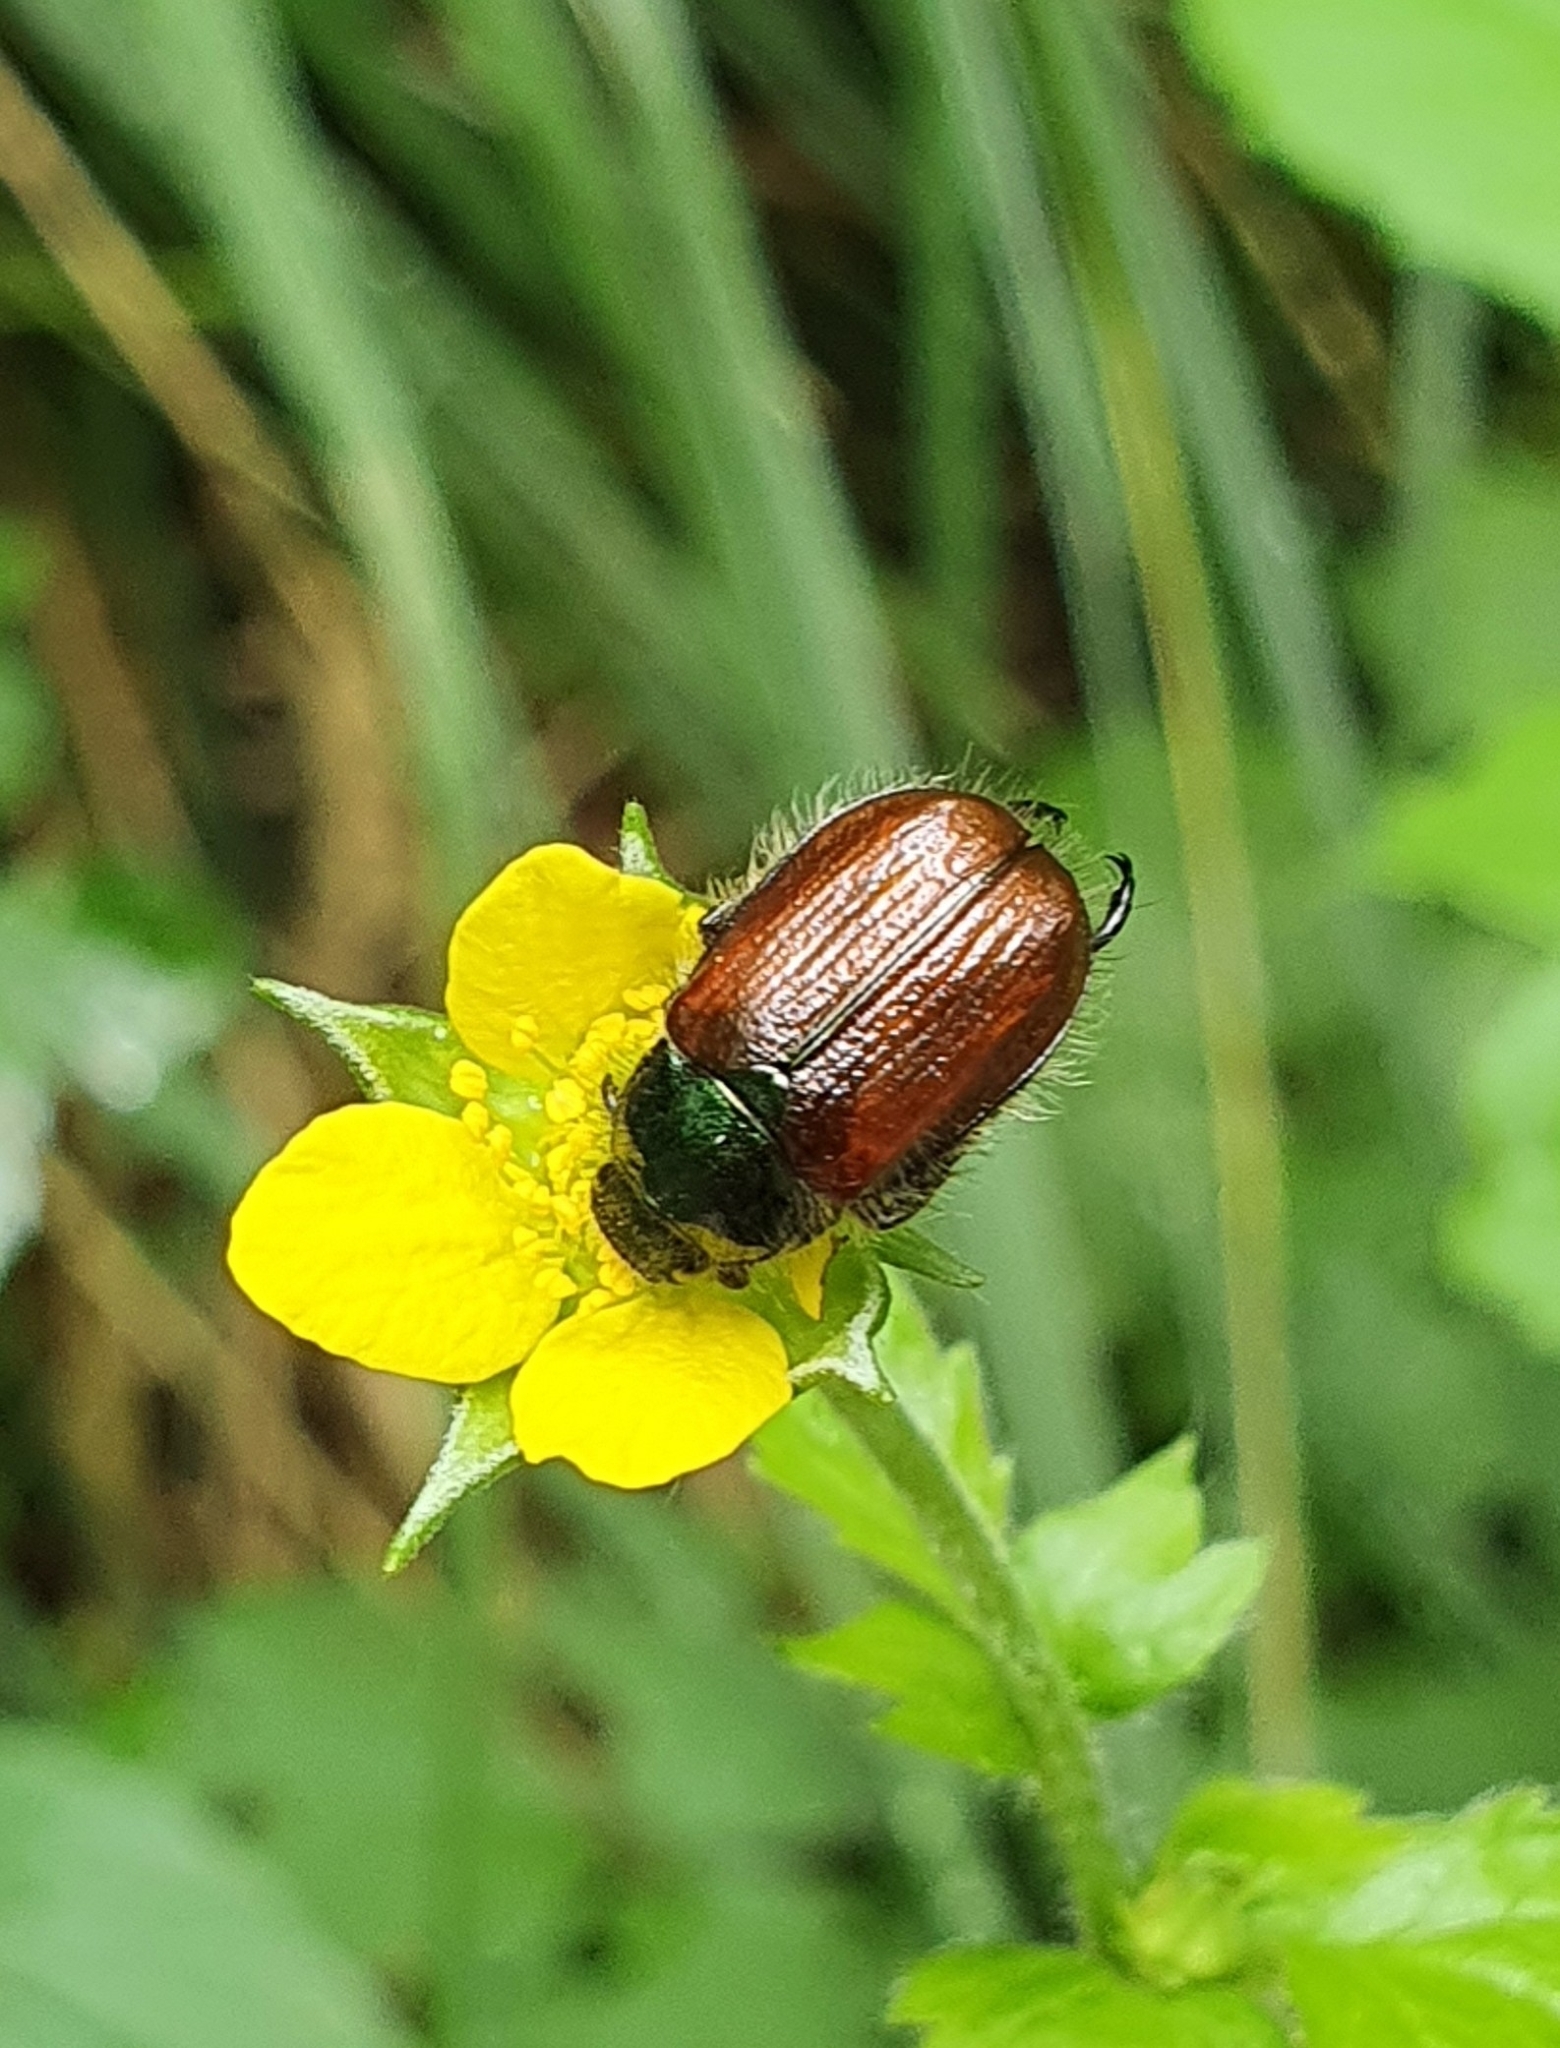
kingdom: Animalia
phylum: Arthropoda
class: Insecta
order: Coleoptera
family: Scarabaeidae
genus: Phyllopertha
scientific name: Phyllopertha horticola
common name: Garden chafer
